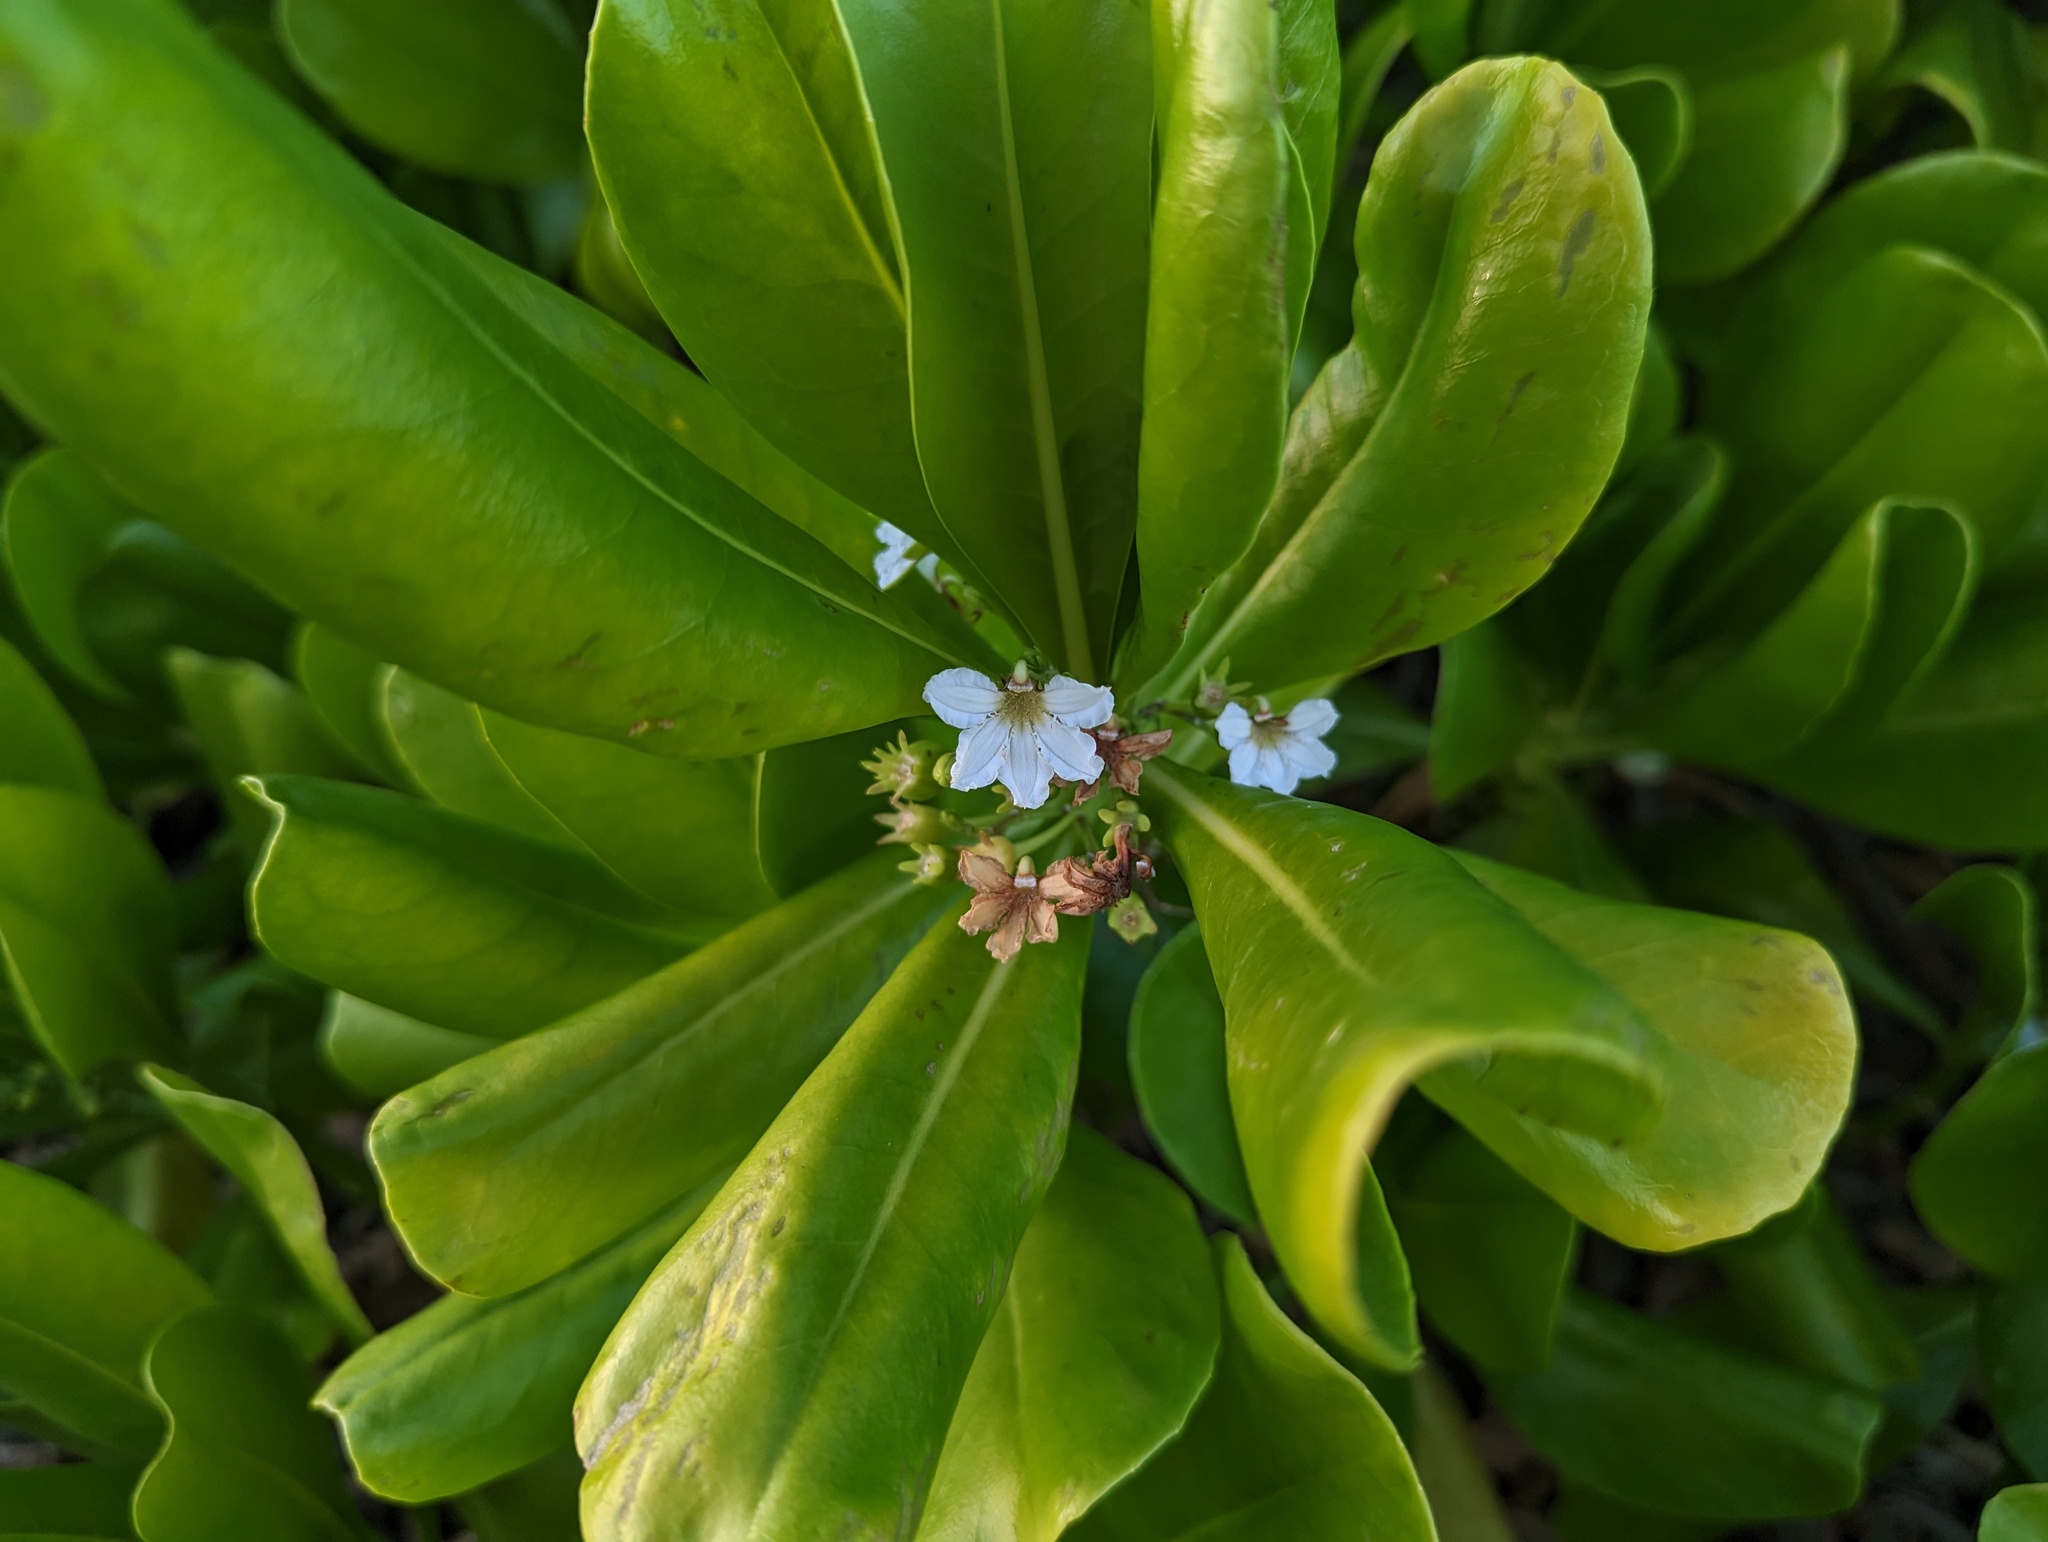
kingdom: Plantae
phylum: Tracheophyta
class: Magnoliopsida
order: Asterales
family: Goodeniaceae
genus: Scaevola
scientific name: Scaevola taccada
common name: Sea lettucetree
